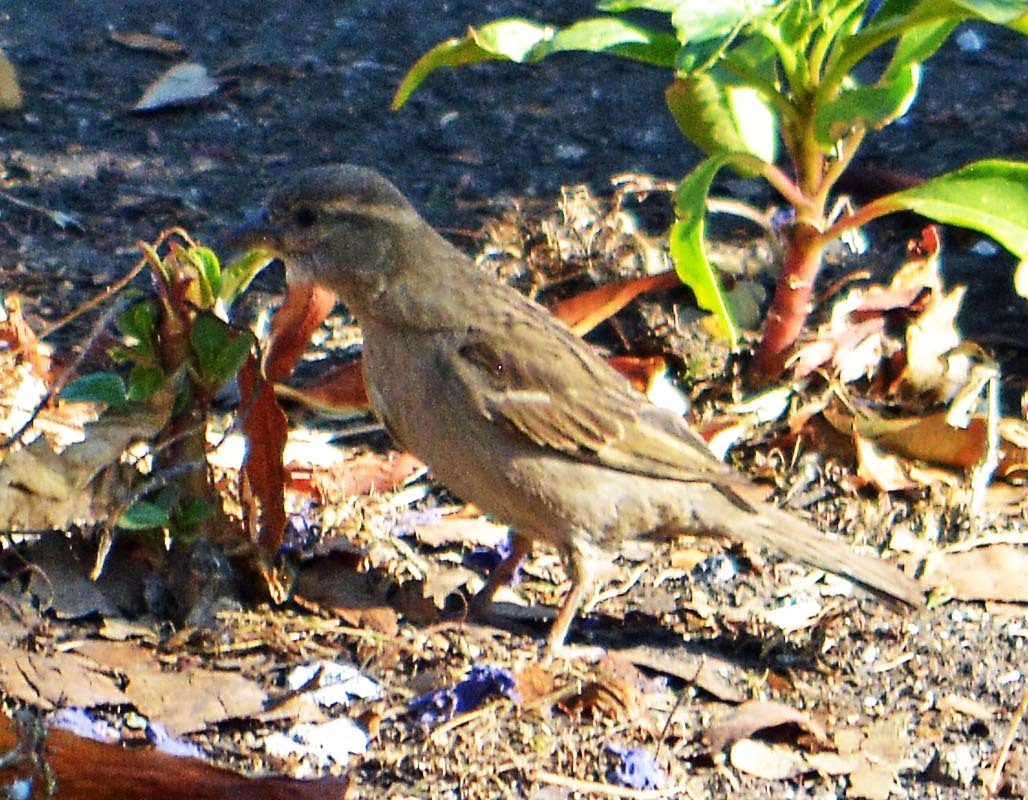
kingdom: Animalia
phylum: Chordata
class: Aves
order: Passeriformes
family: Passeridae
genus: Passer
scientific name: Passer domesticus
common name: House sparrow
